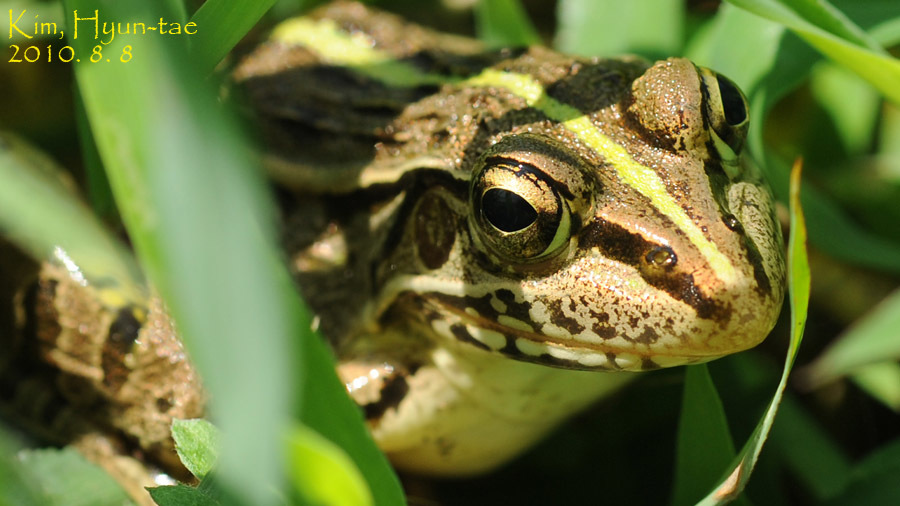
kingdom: Animalia
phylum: Chordata
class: Amphibia
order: Anura
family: Ranidae
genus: Pelophylax
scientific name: Pelophylax nigromaculatus
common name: Black-spotted pond frog
